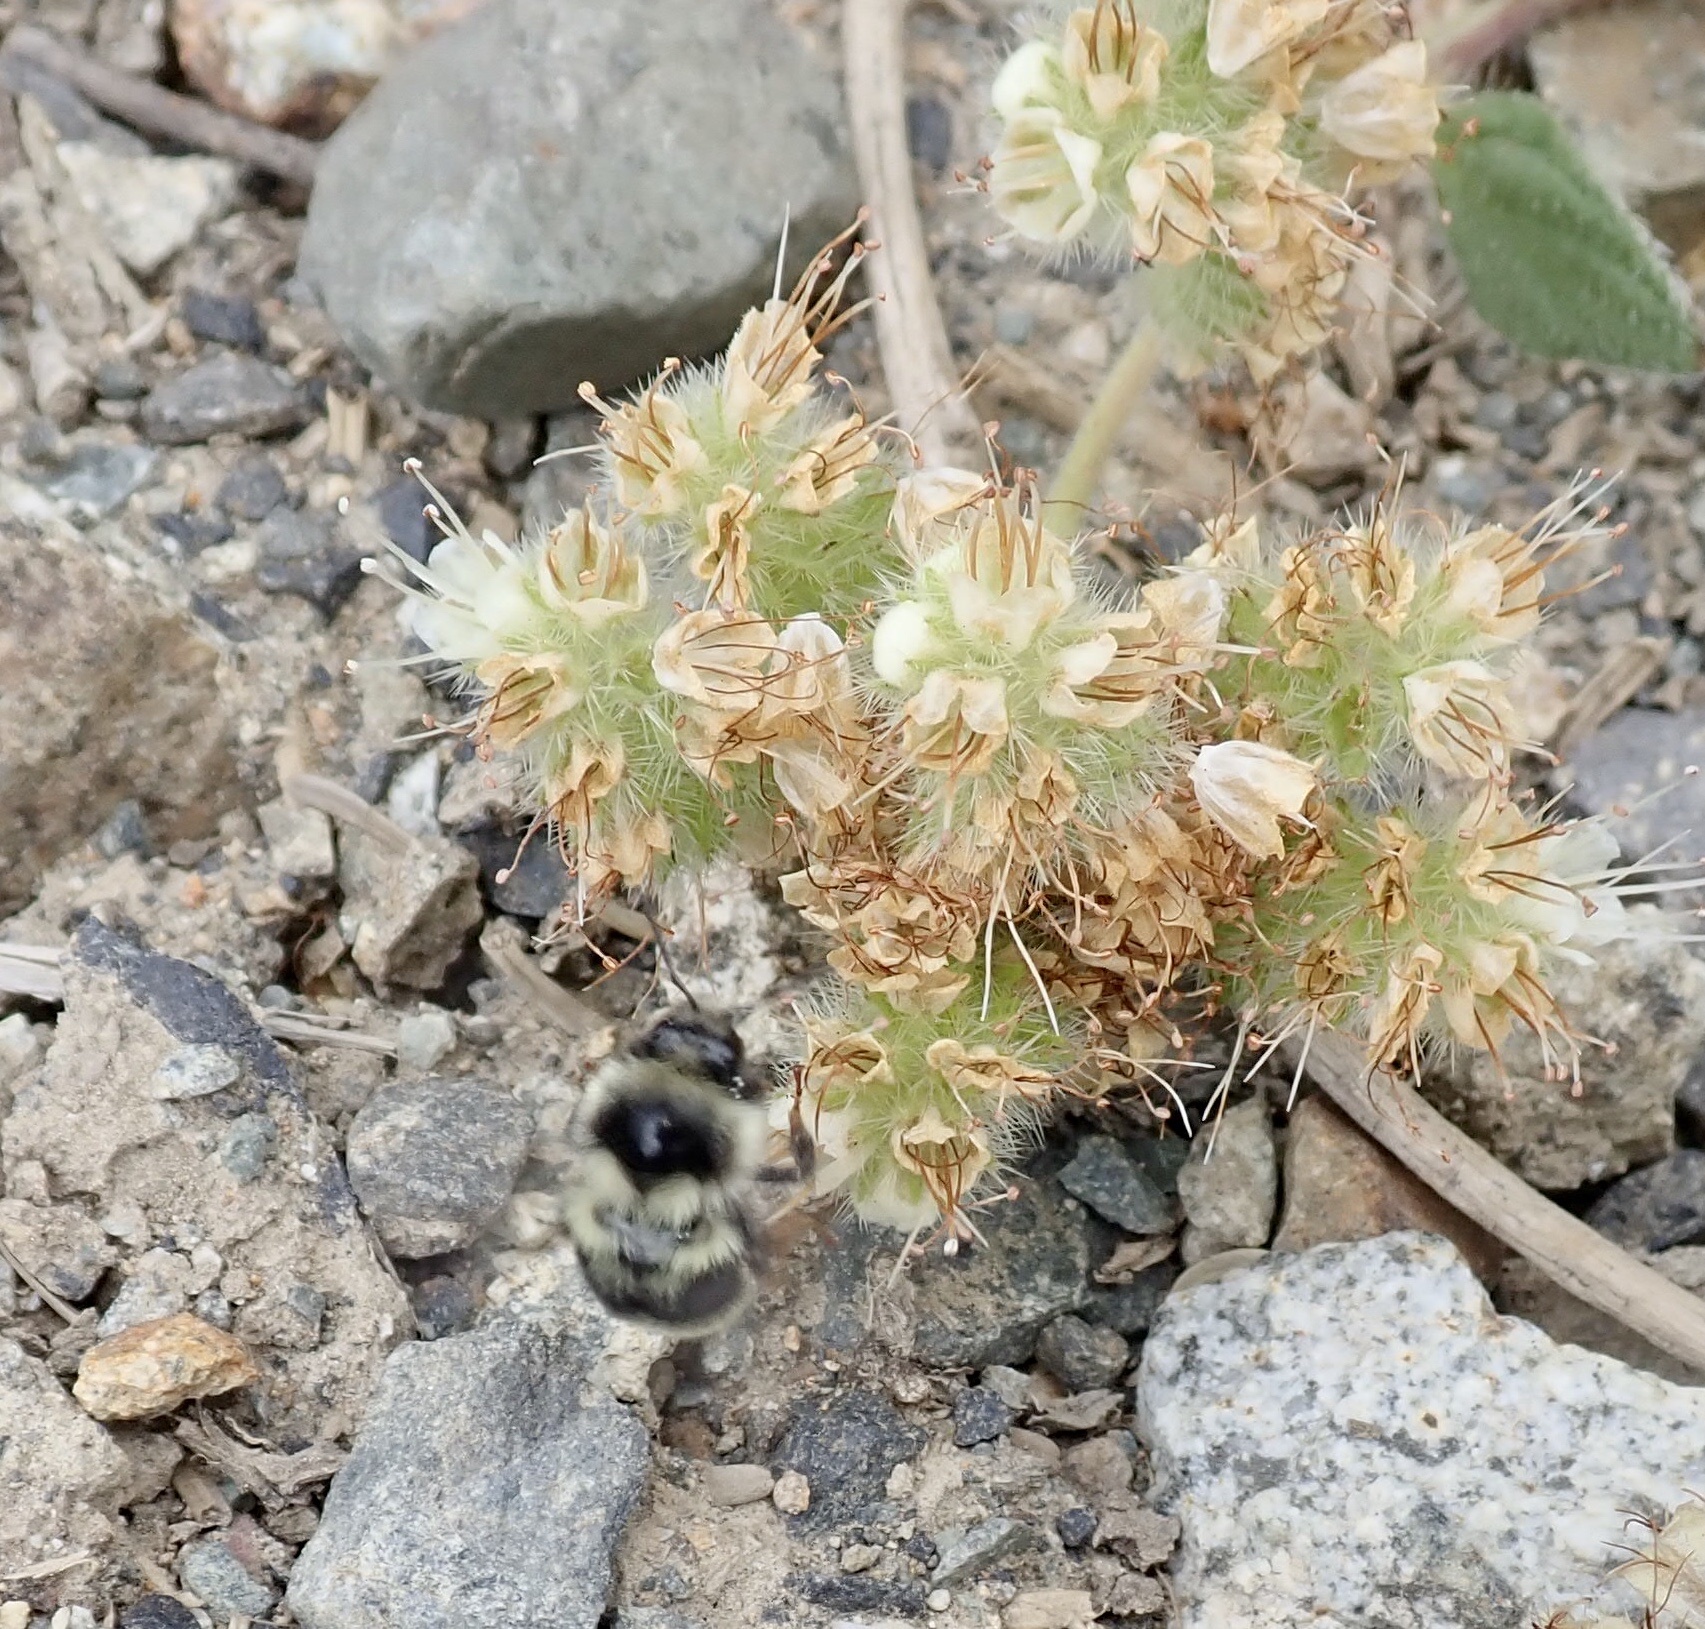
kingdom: Animalia
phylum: Arthropoda
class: Insecta
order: Hymenoptera
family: Apidae
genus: Bombus
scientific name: Bombus vancouverensis
